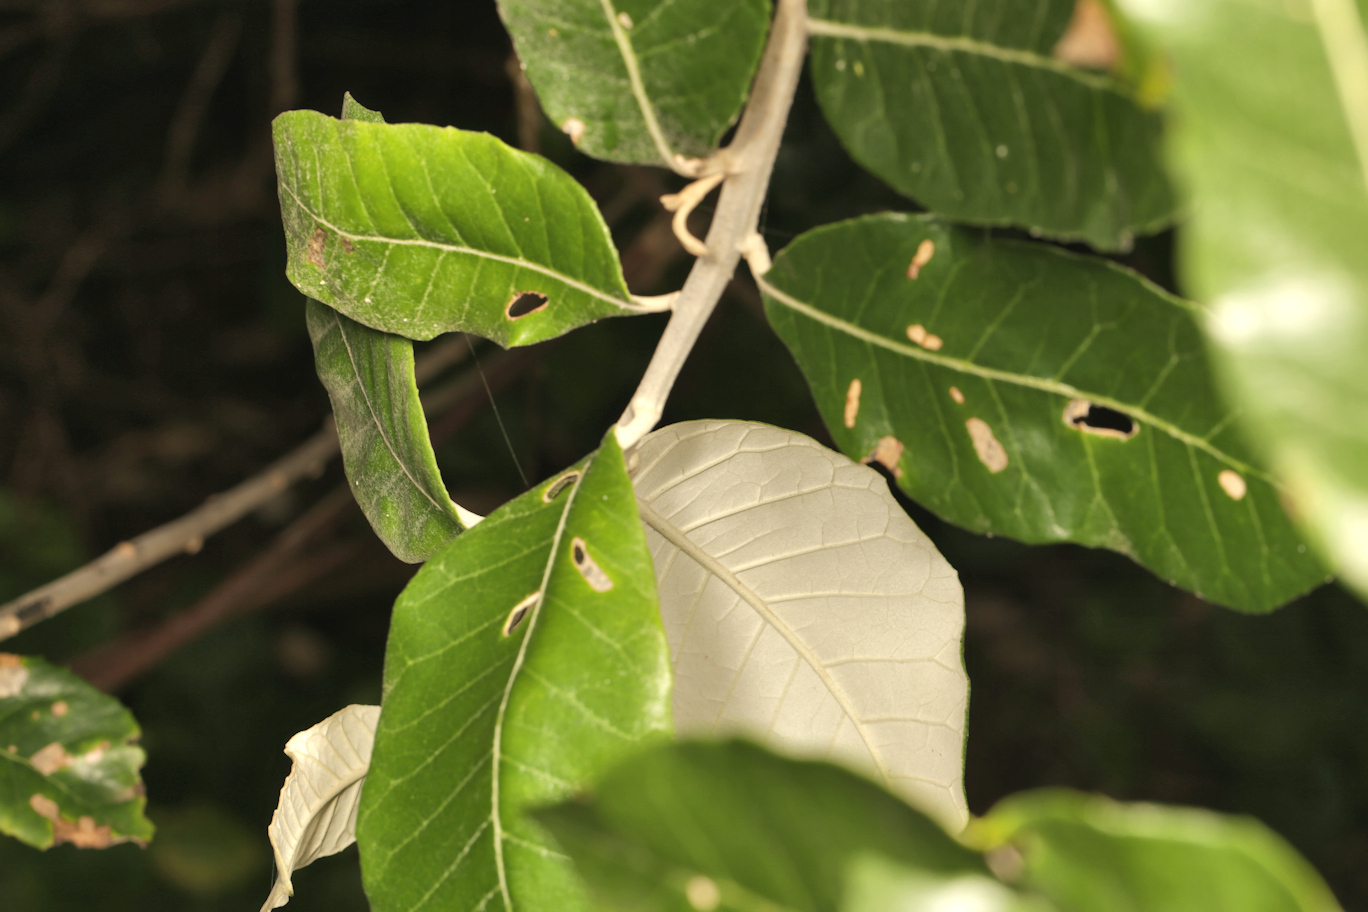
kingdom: Plantae
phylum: Tracheophyta
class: Magnoliopsida
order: Asterales
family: Asteraceae
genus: Brachylaena
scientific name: Brachylaena discolor
